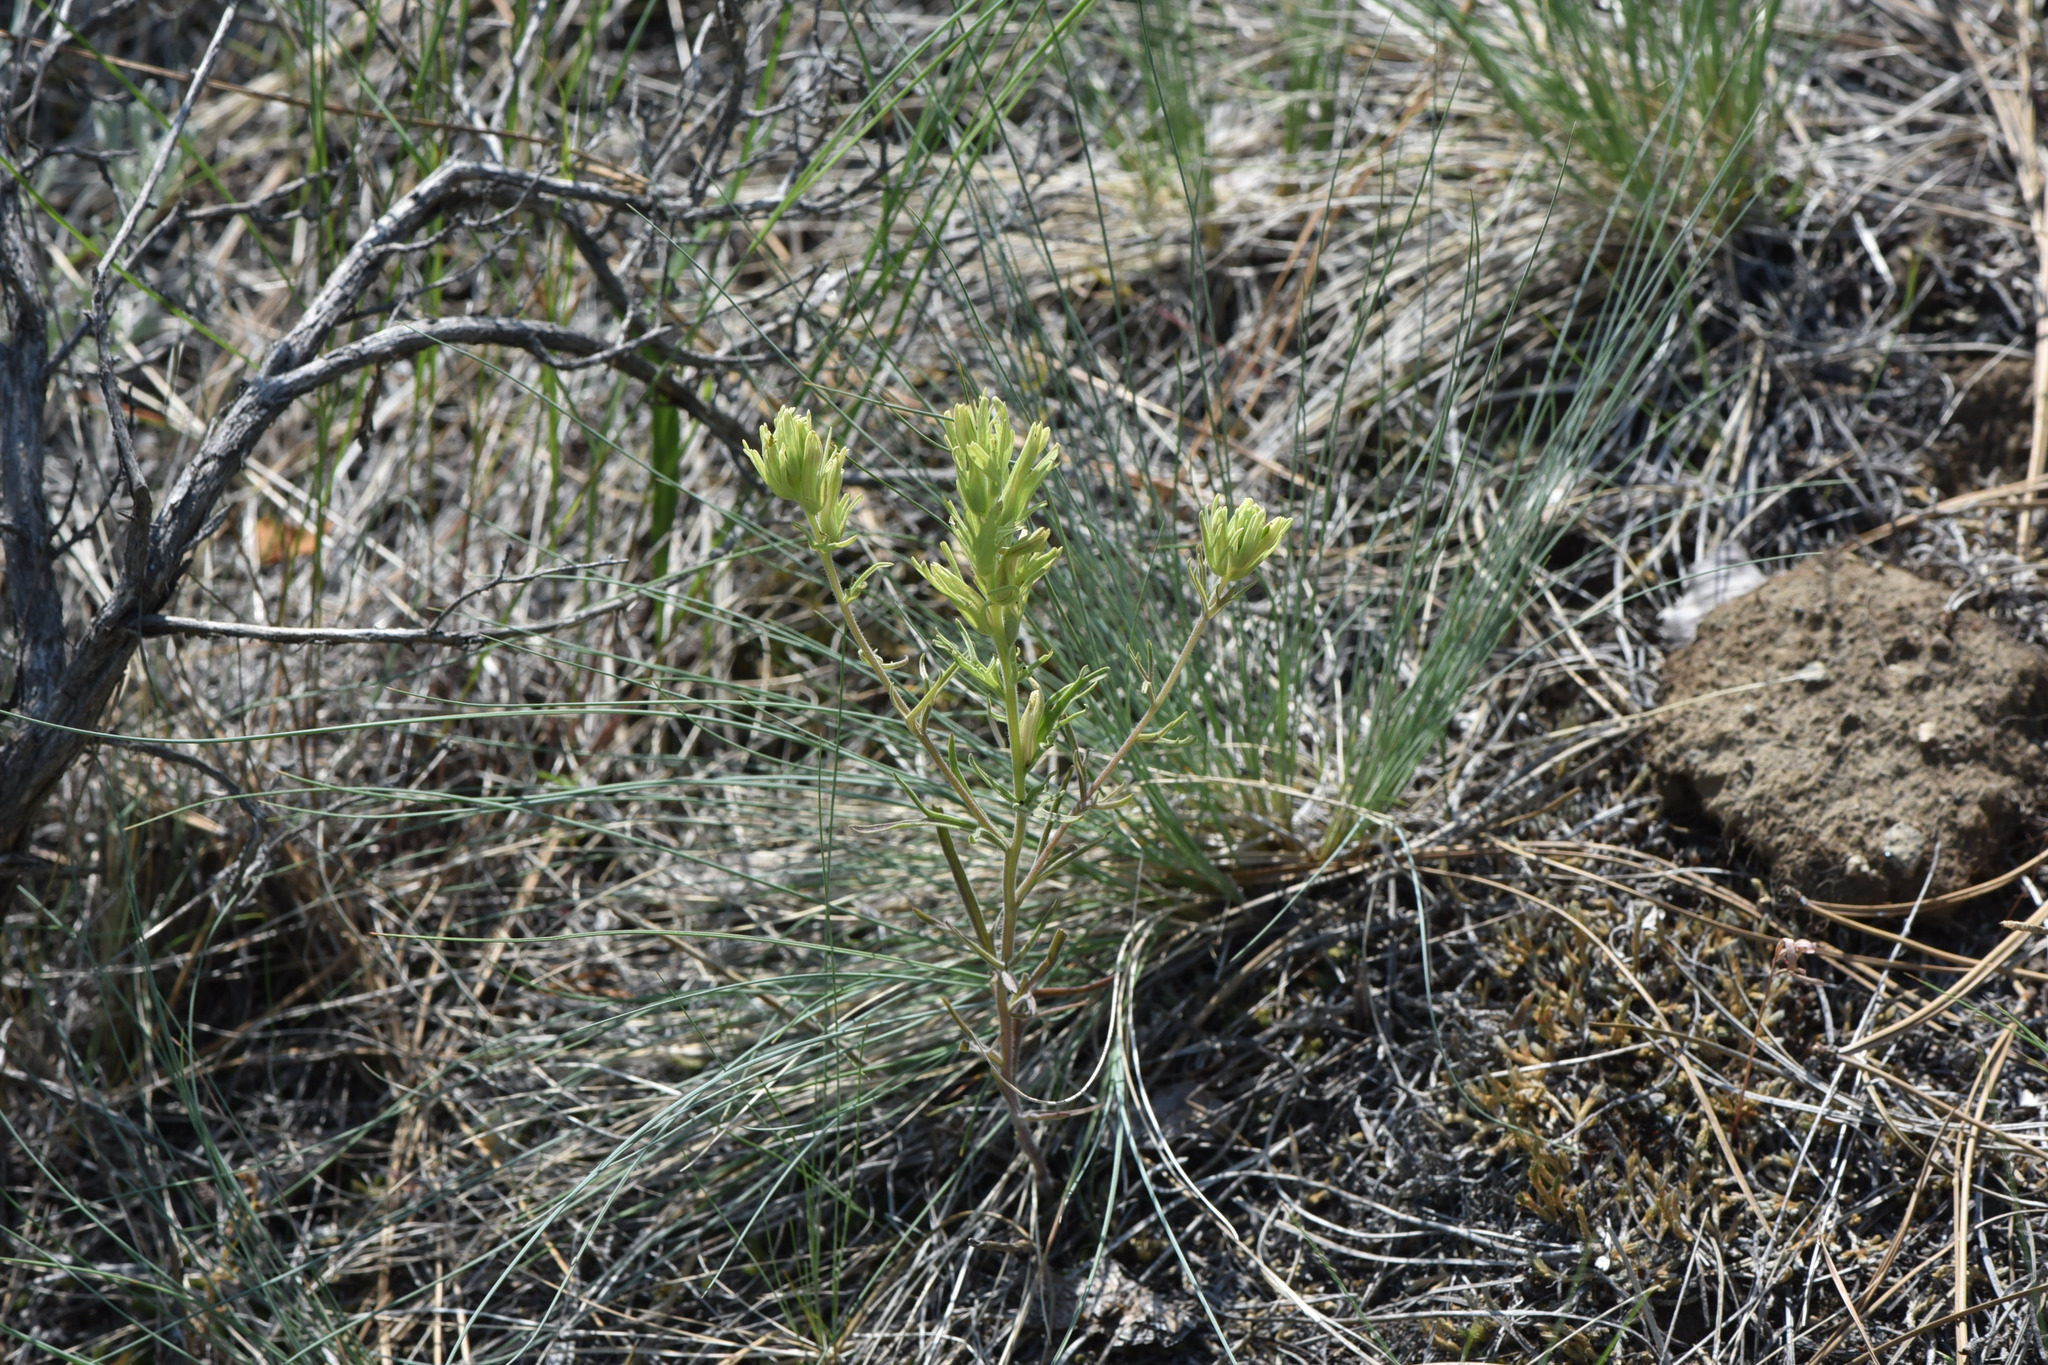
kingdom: Plantae
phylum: Tracheophyta
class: Magnoliopsida
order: Lamiales
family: Orobanchaceae
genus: Castilleja
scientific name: Castilleja thompsonii
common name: Thompson's paintbrush
